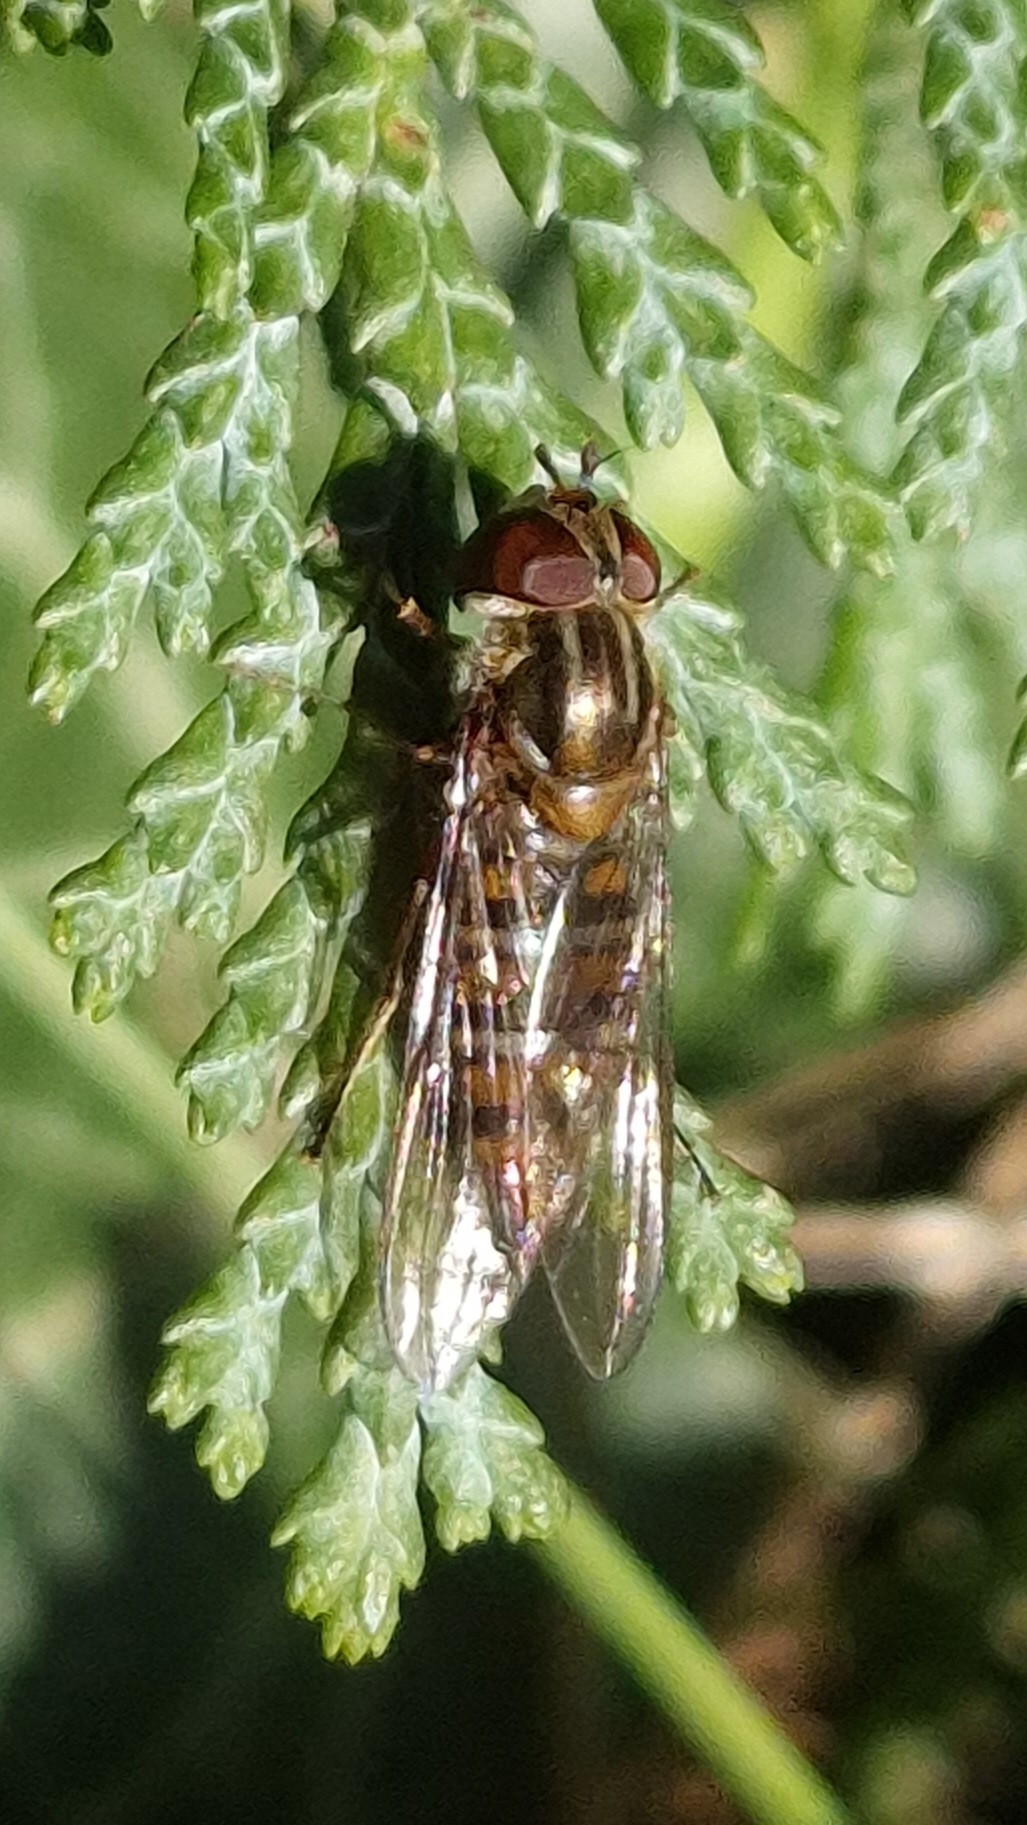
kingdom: Animalia
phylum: Arthropoda
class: Insecta
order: Diptera
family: Syrphidae
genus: Episyrphus
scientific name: Episyrphus balteatus
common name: Marmalade hoverfly
